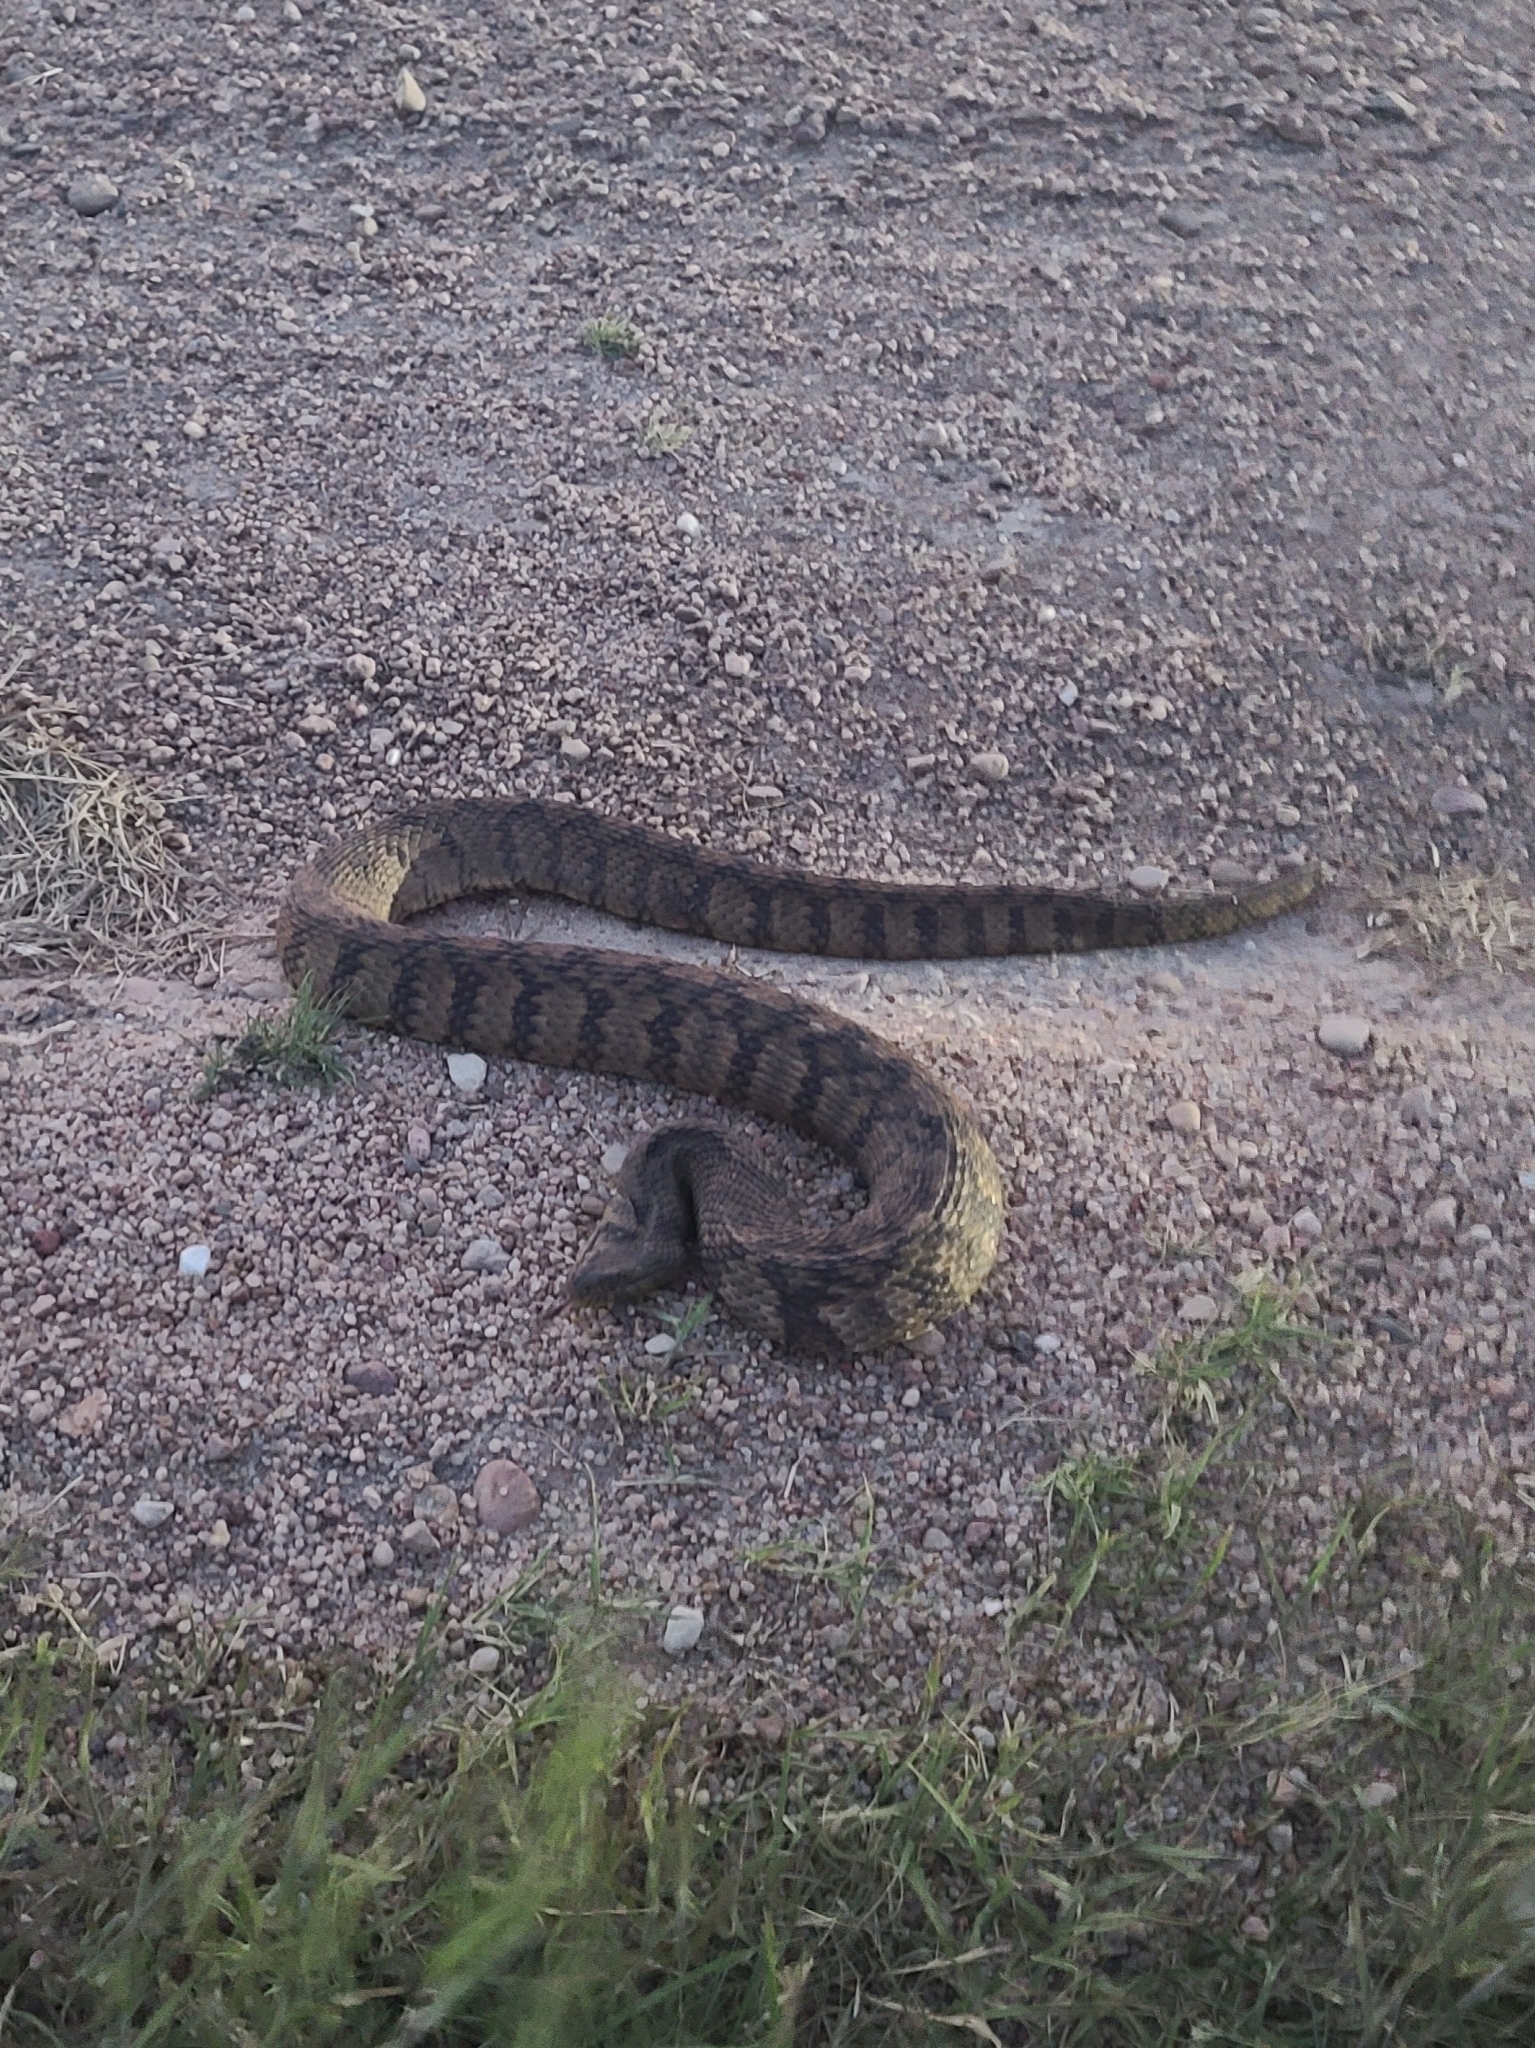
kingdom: Animalia
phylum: Chordata
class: Squamata
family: Colubridae
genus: Nerodia
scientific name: Nerodia rhombifer
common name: Diamondback water snake
